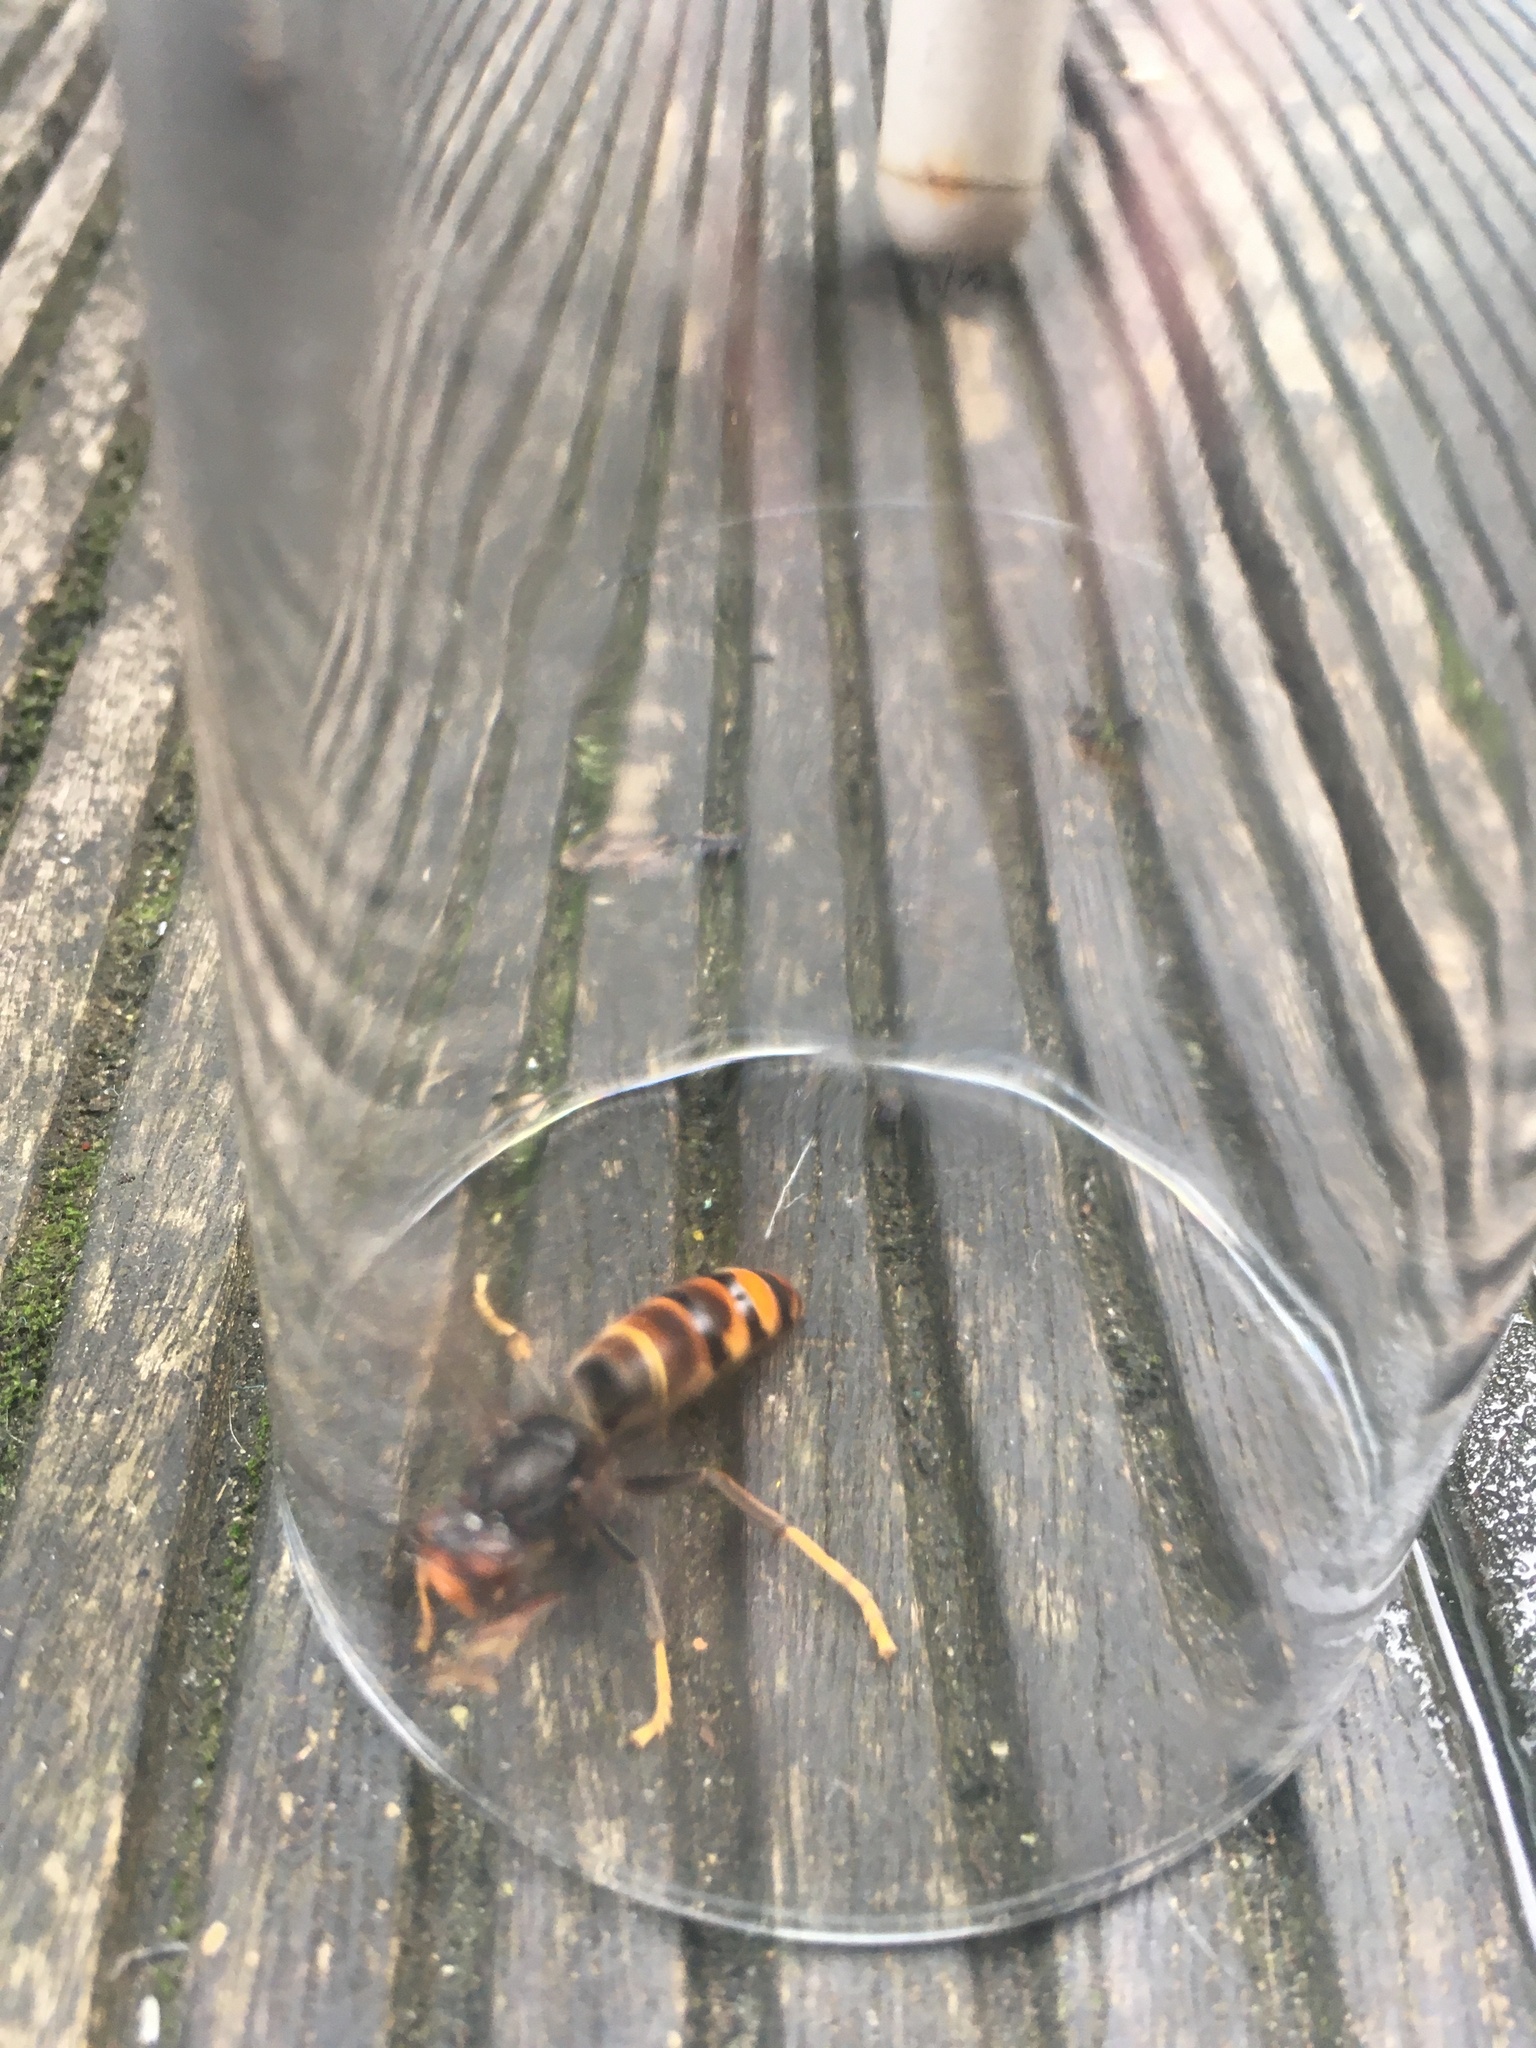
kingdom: Animalia
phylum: Arthropoda
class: Insecta
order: Hymenoptera
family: Vespidae
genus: Vespa
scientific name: Vespa velutina
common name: Asian hornet
